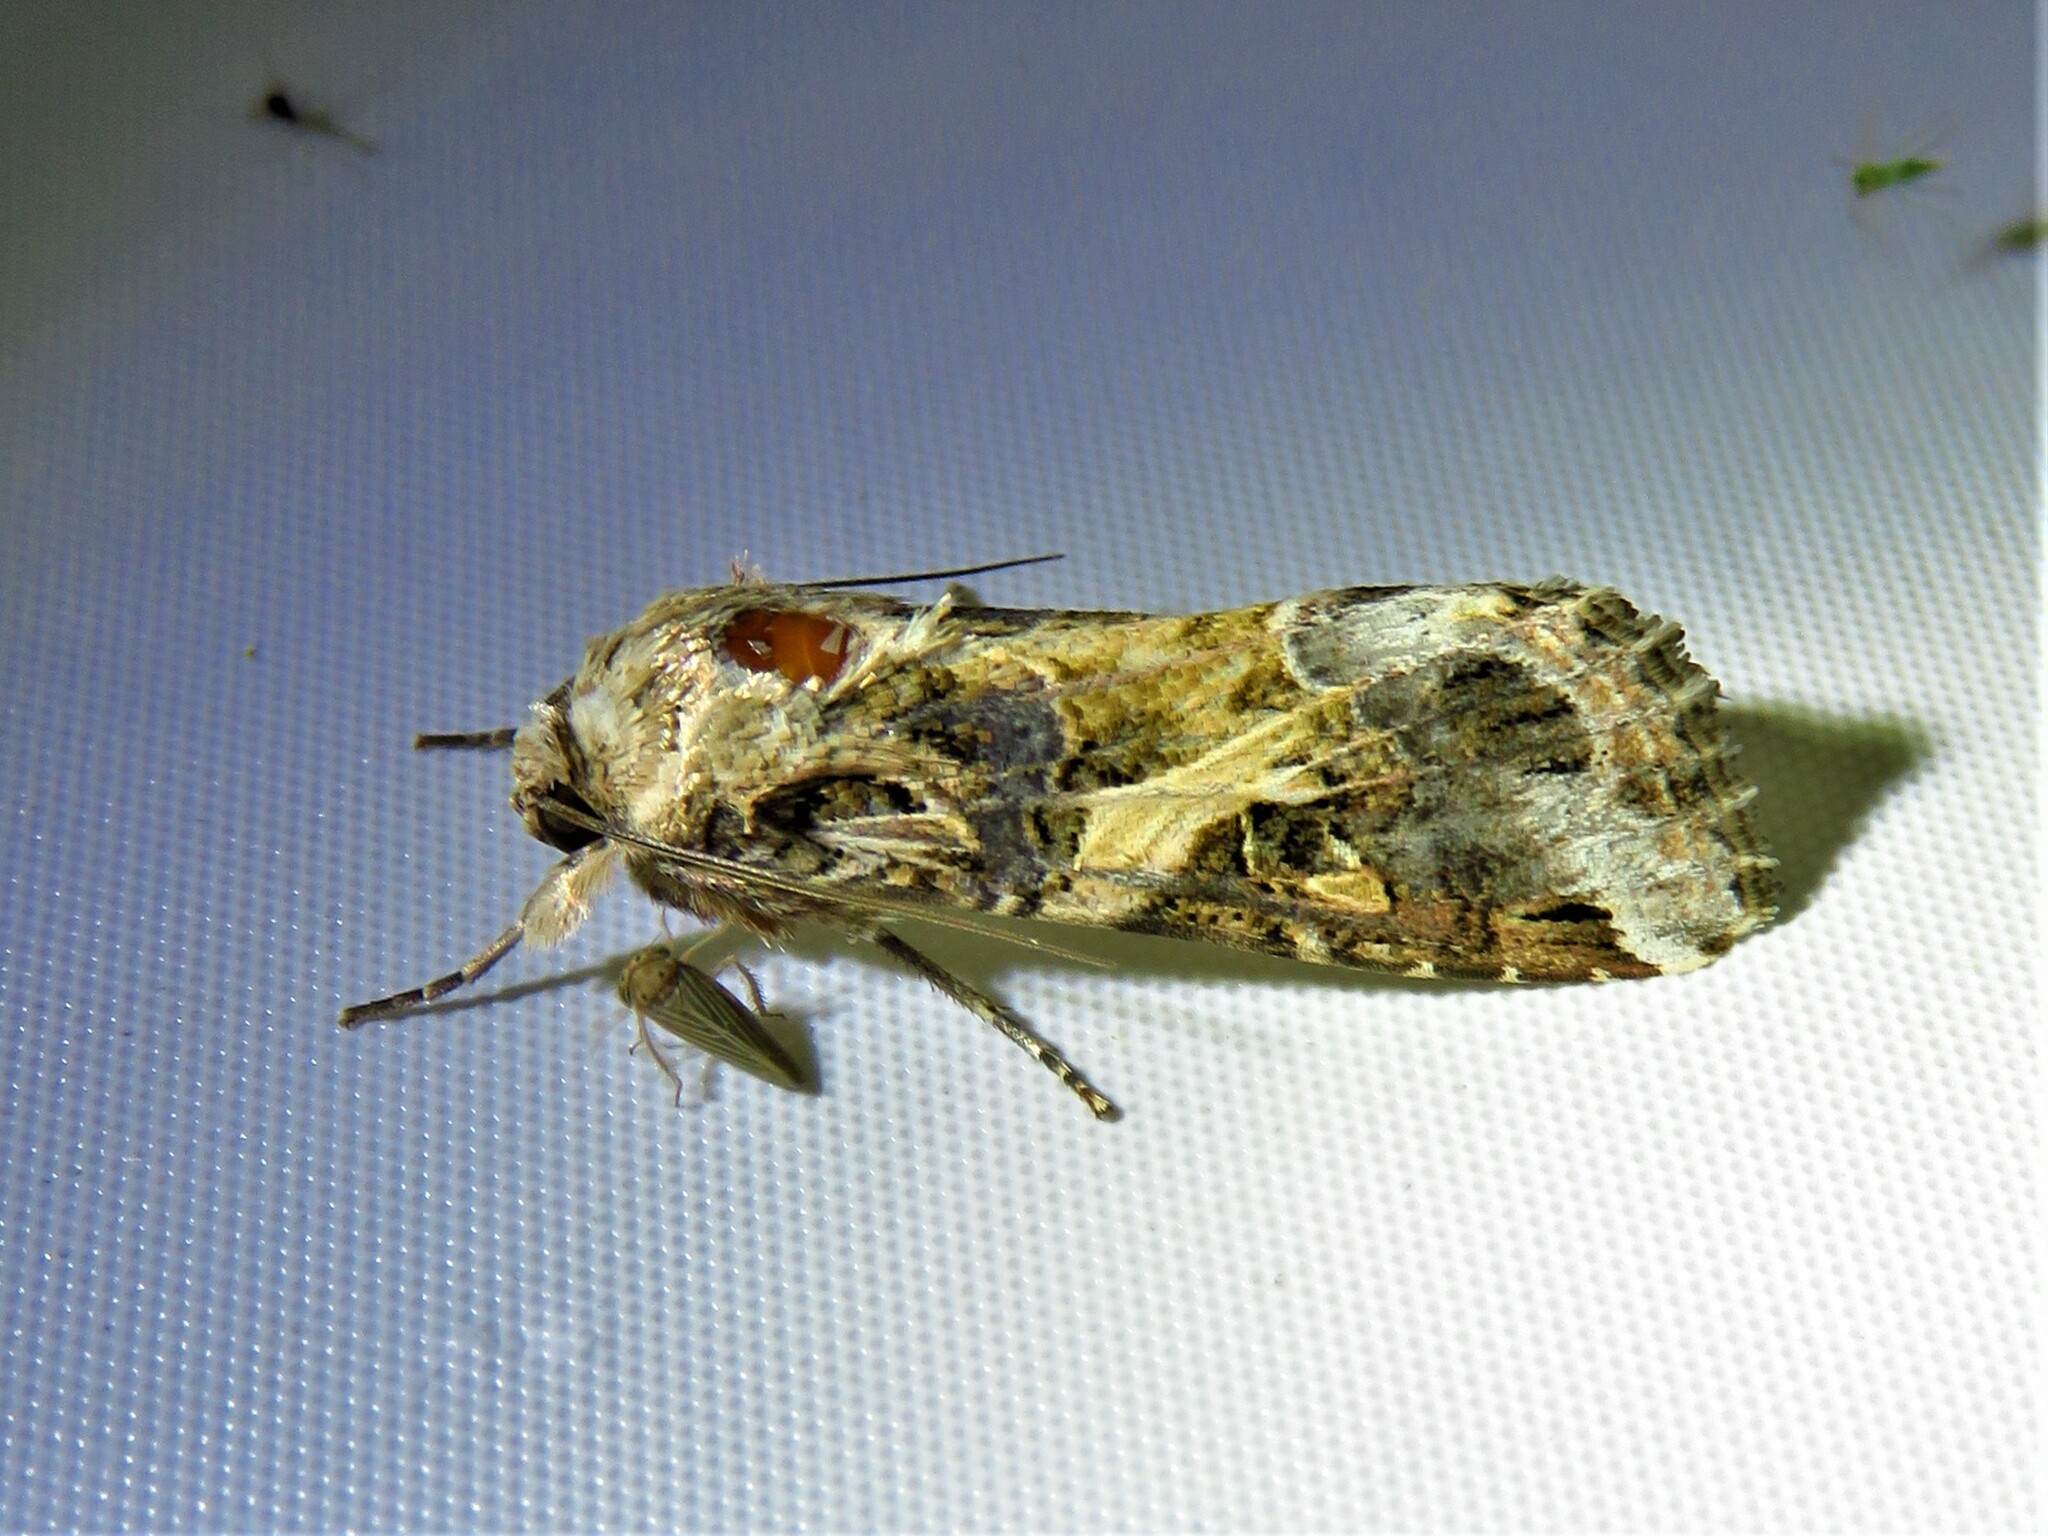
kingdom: Animalia
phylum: Arthropoda
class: Insecta
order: Lepidoptera
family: Noctuidae
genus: Spodoptera
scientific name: Spodoptera ornithogalli
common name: Yellow-striped armyworm
